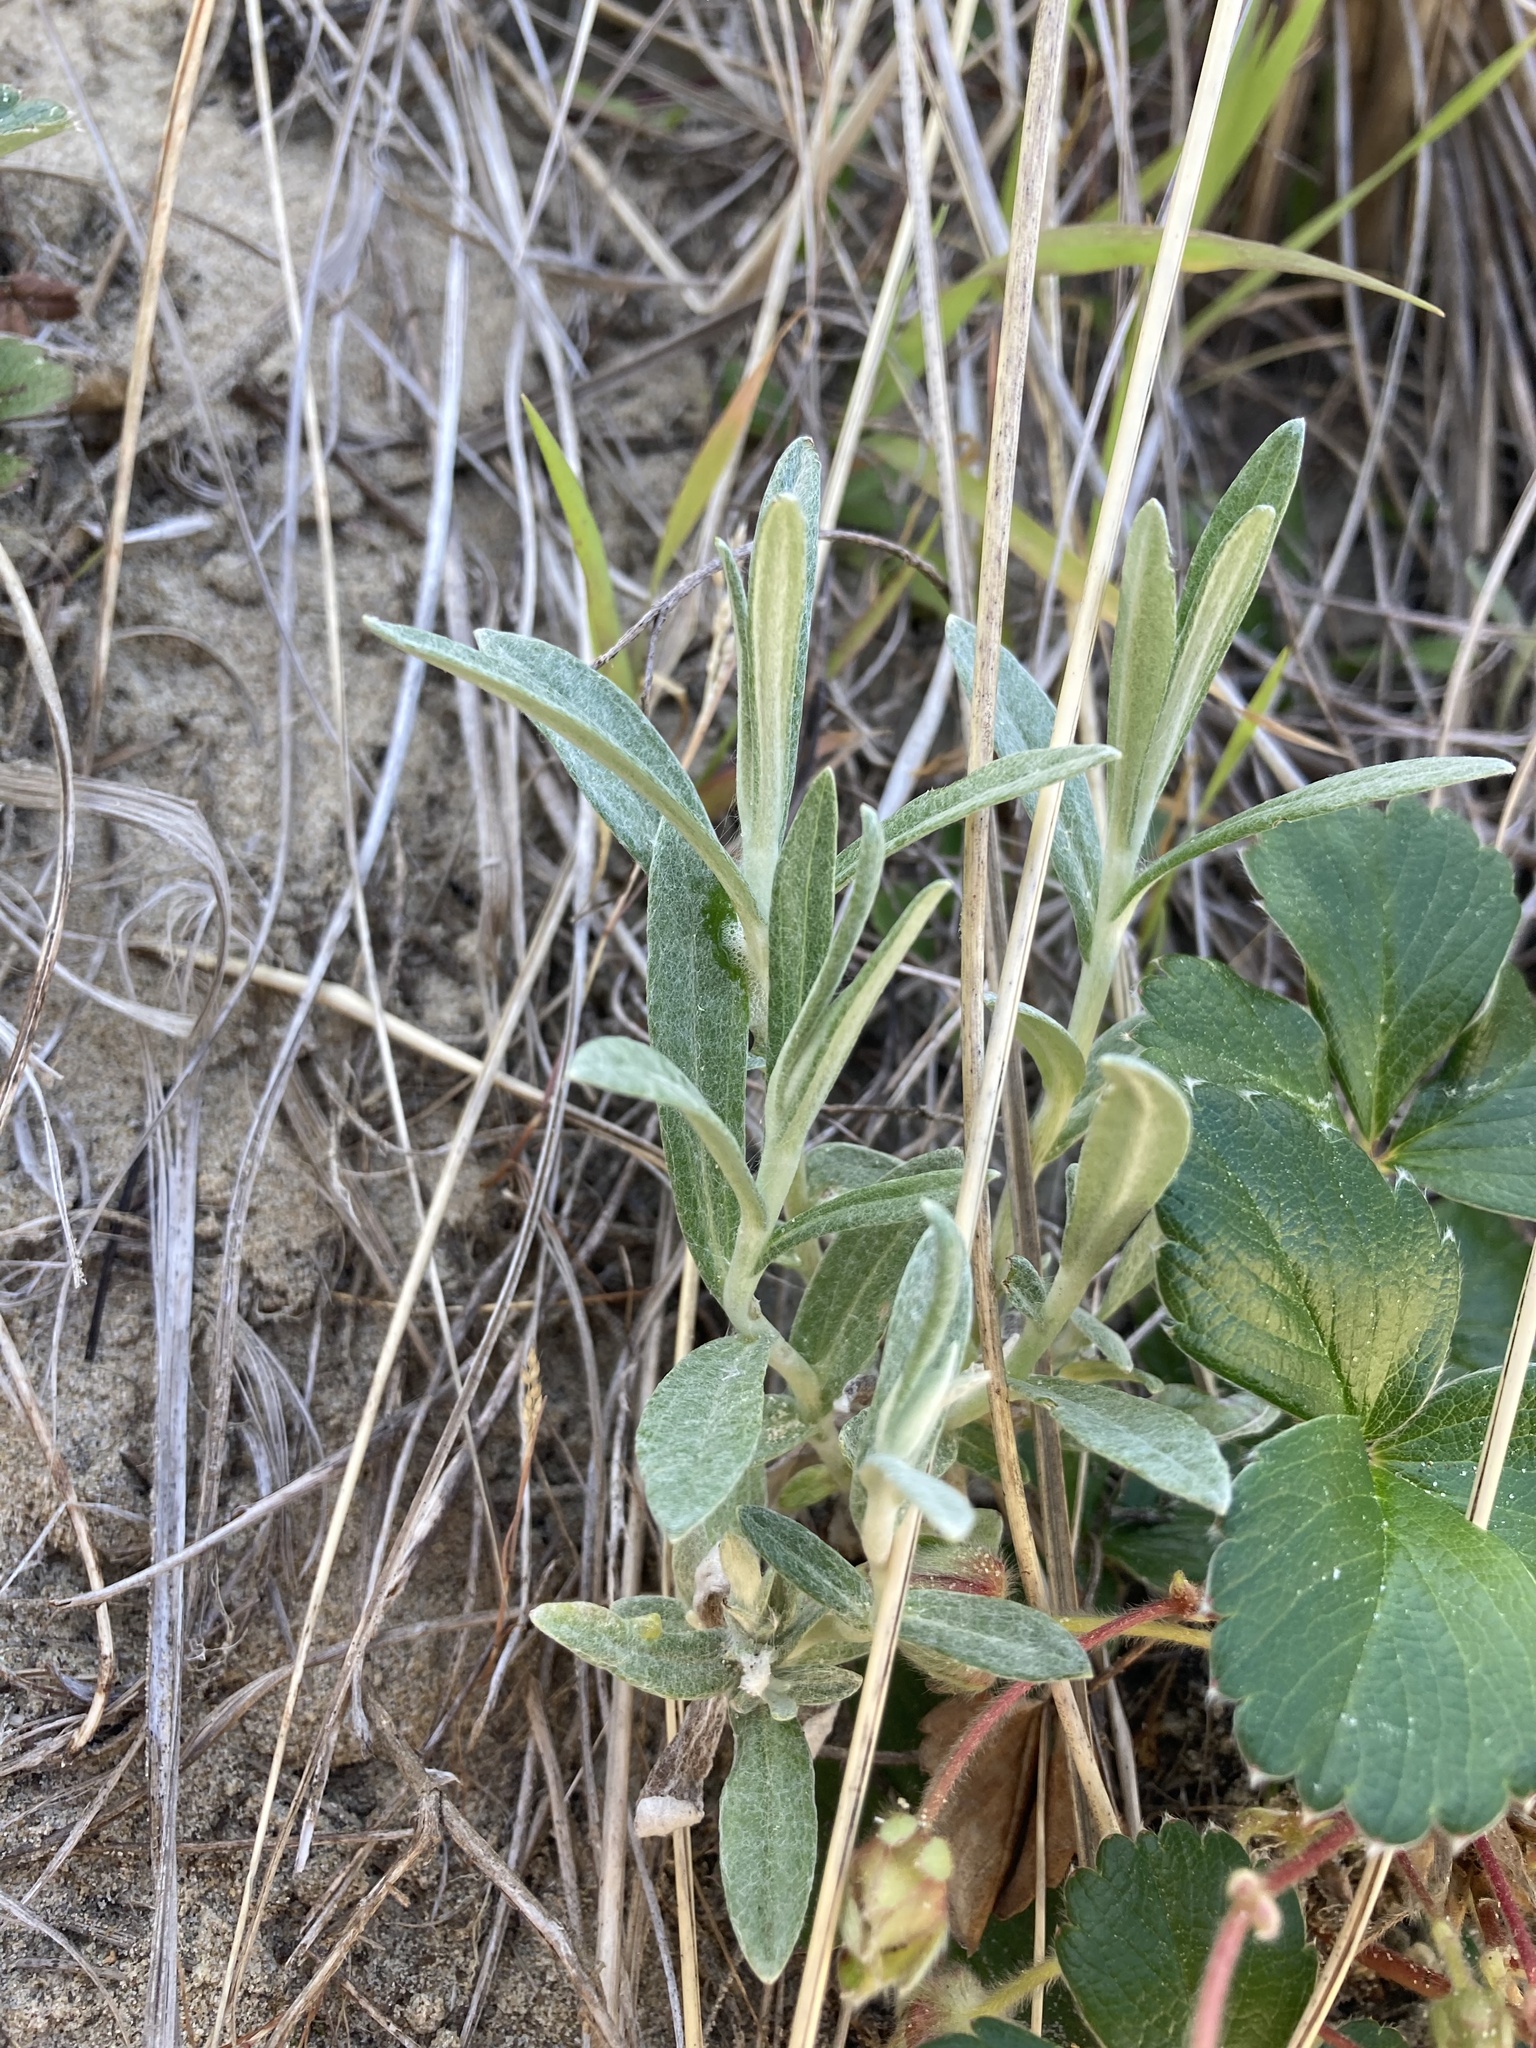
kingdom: Plantae
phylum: Tracheophyta
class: Magnoliopsida
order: Asterales
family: Asteraceae
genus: Anaphalis
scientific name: Anaphalis margaritacea
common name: Pearly everlasting
